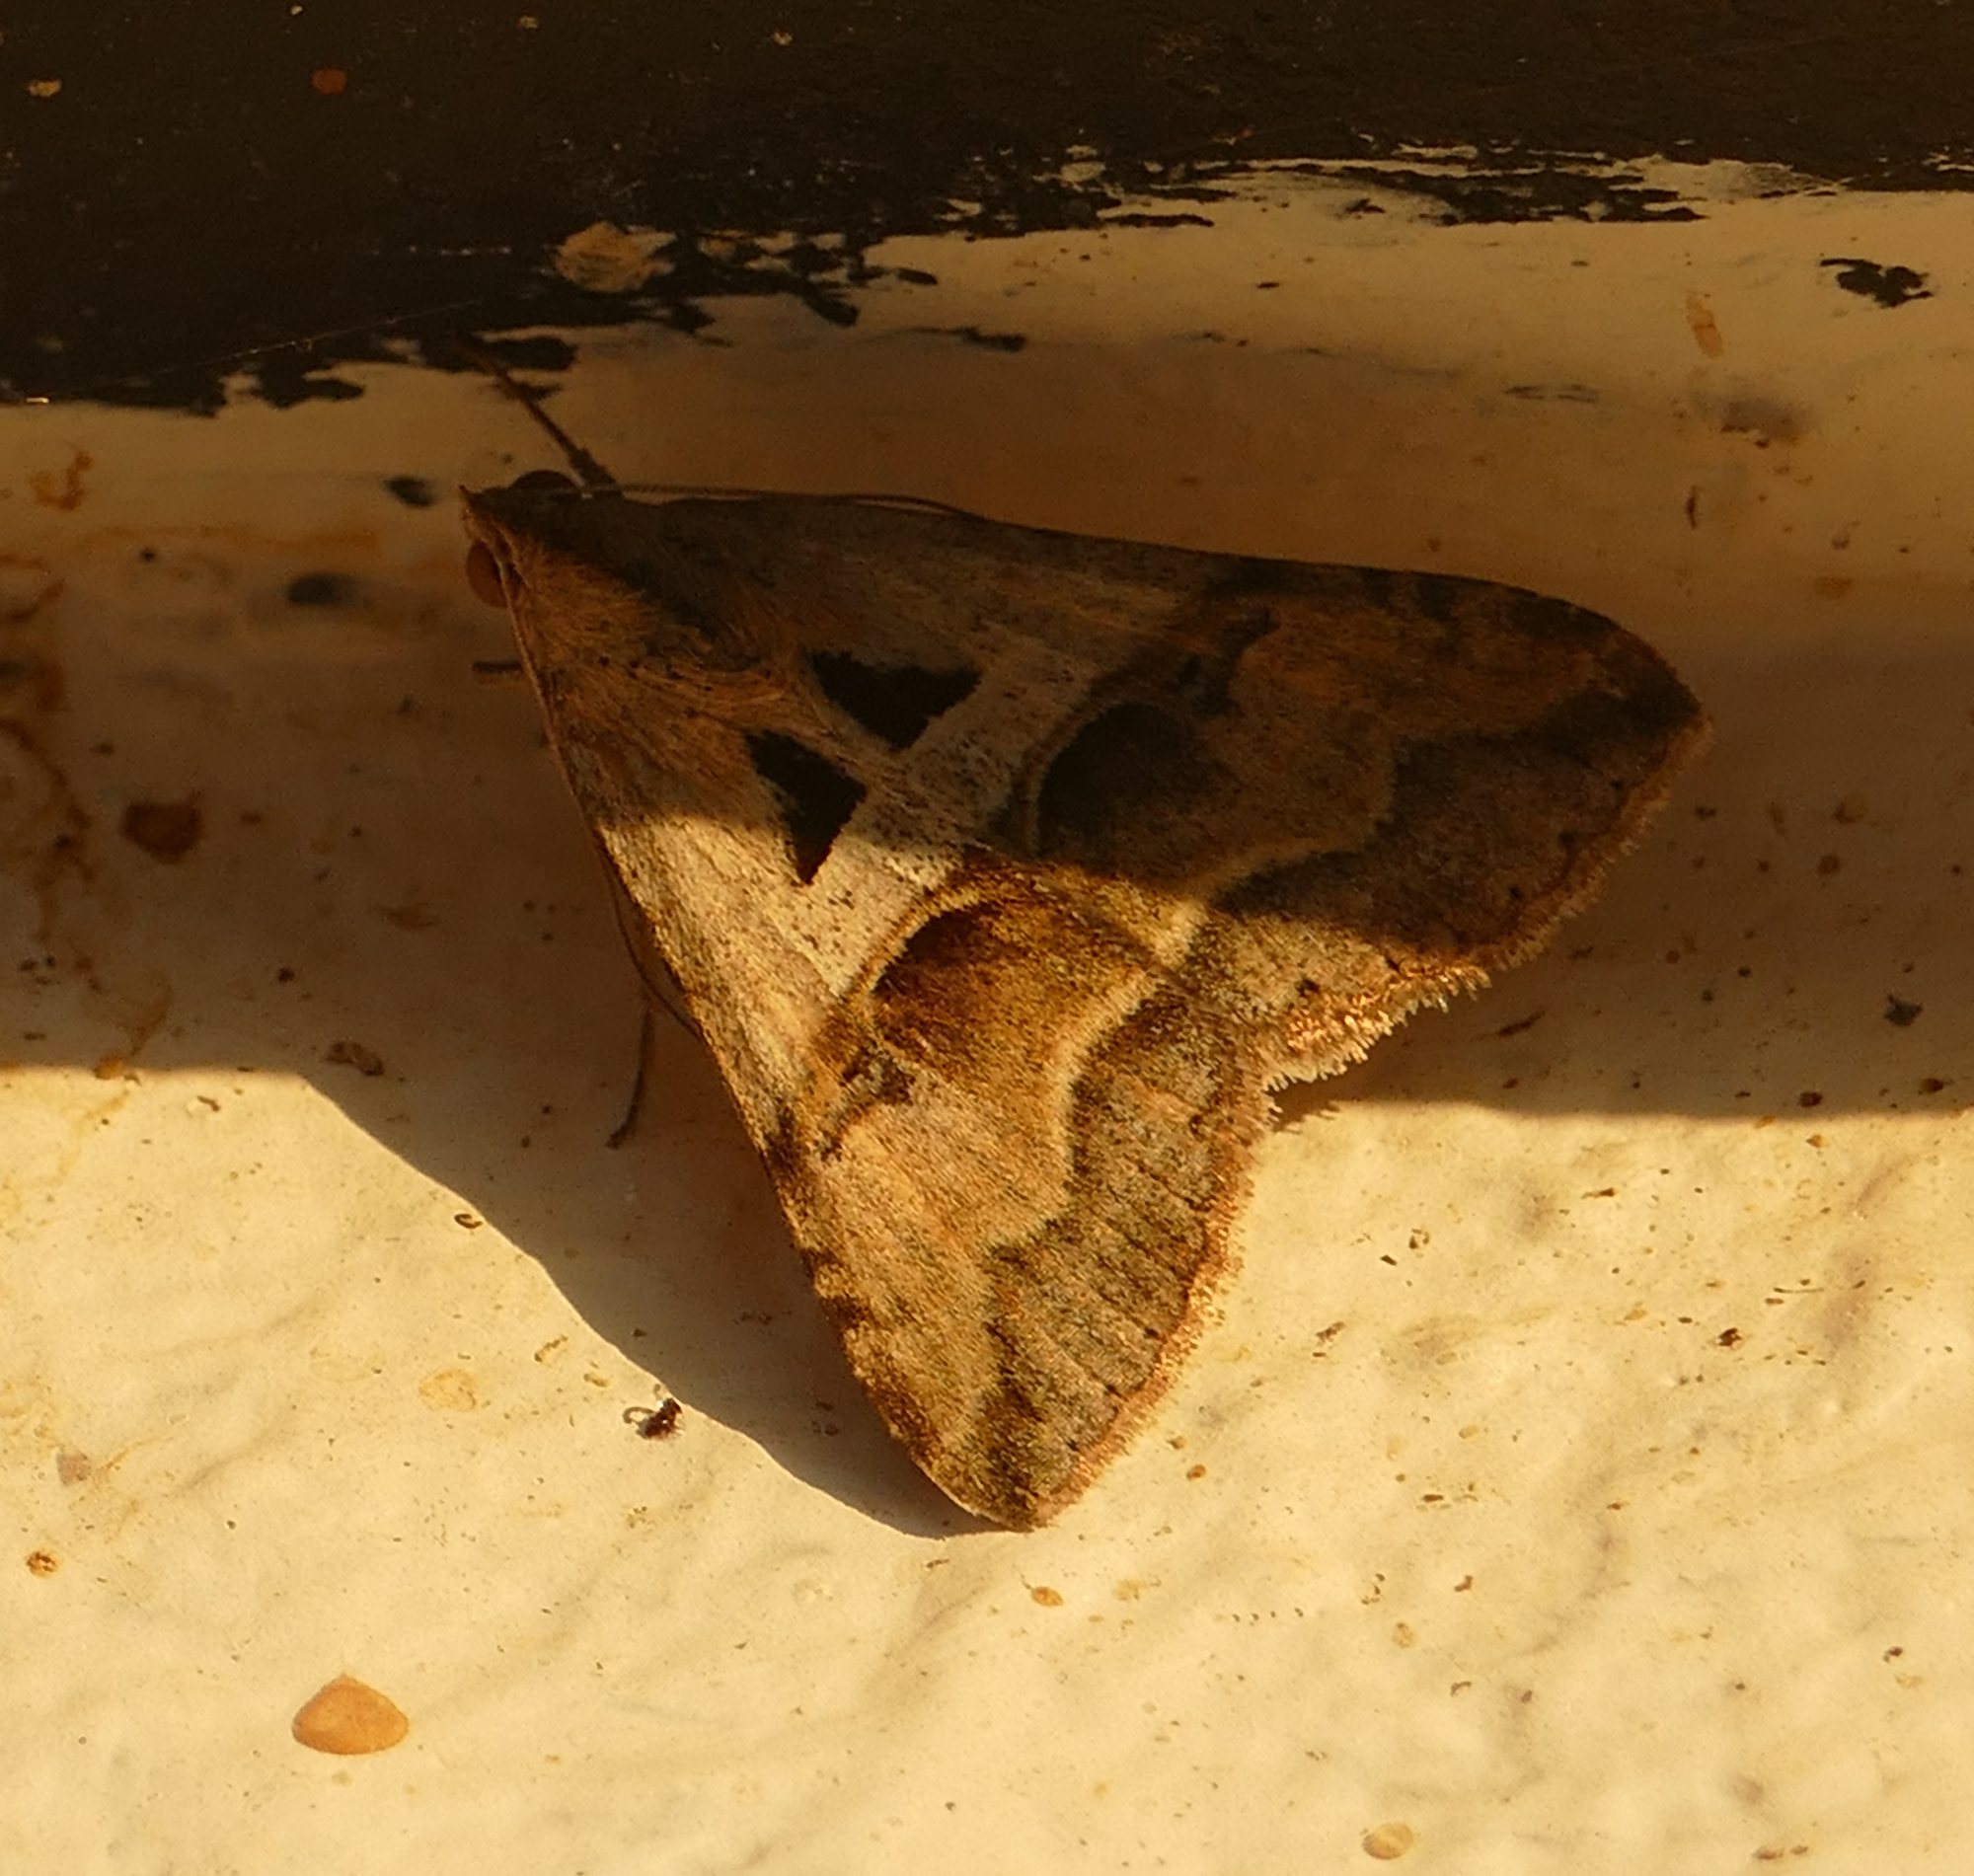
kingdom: Animalia
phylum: Arthropoda
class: Insecta
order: Lepidoptera
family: Erebidae
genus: Melipotis
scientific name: Melipotis cellaris
